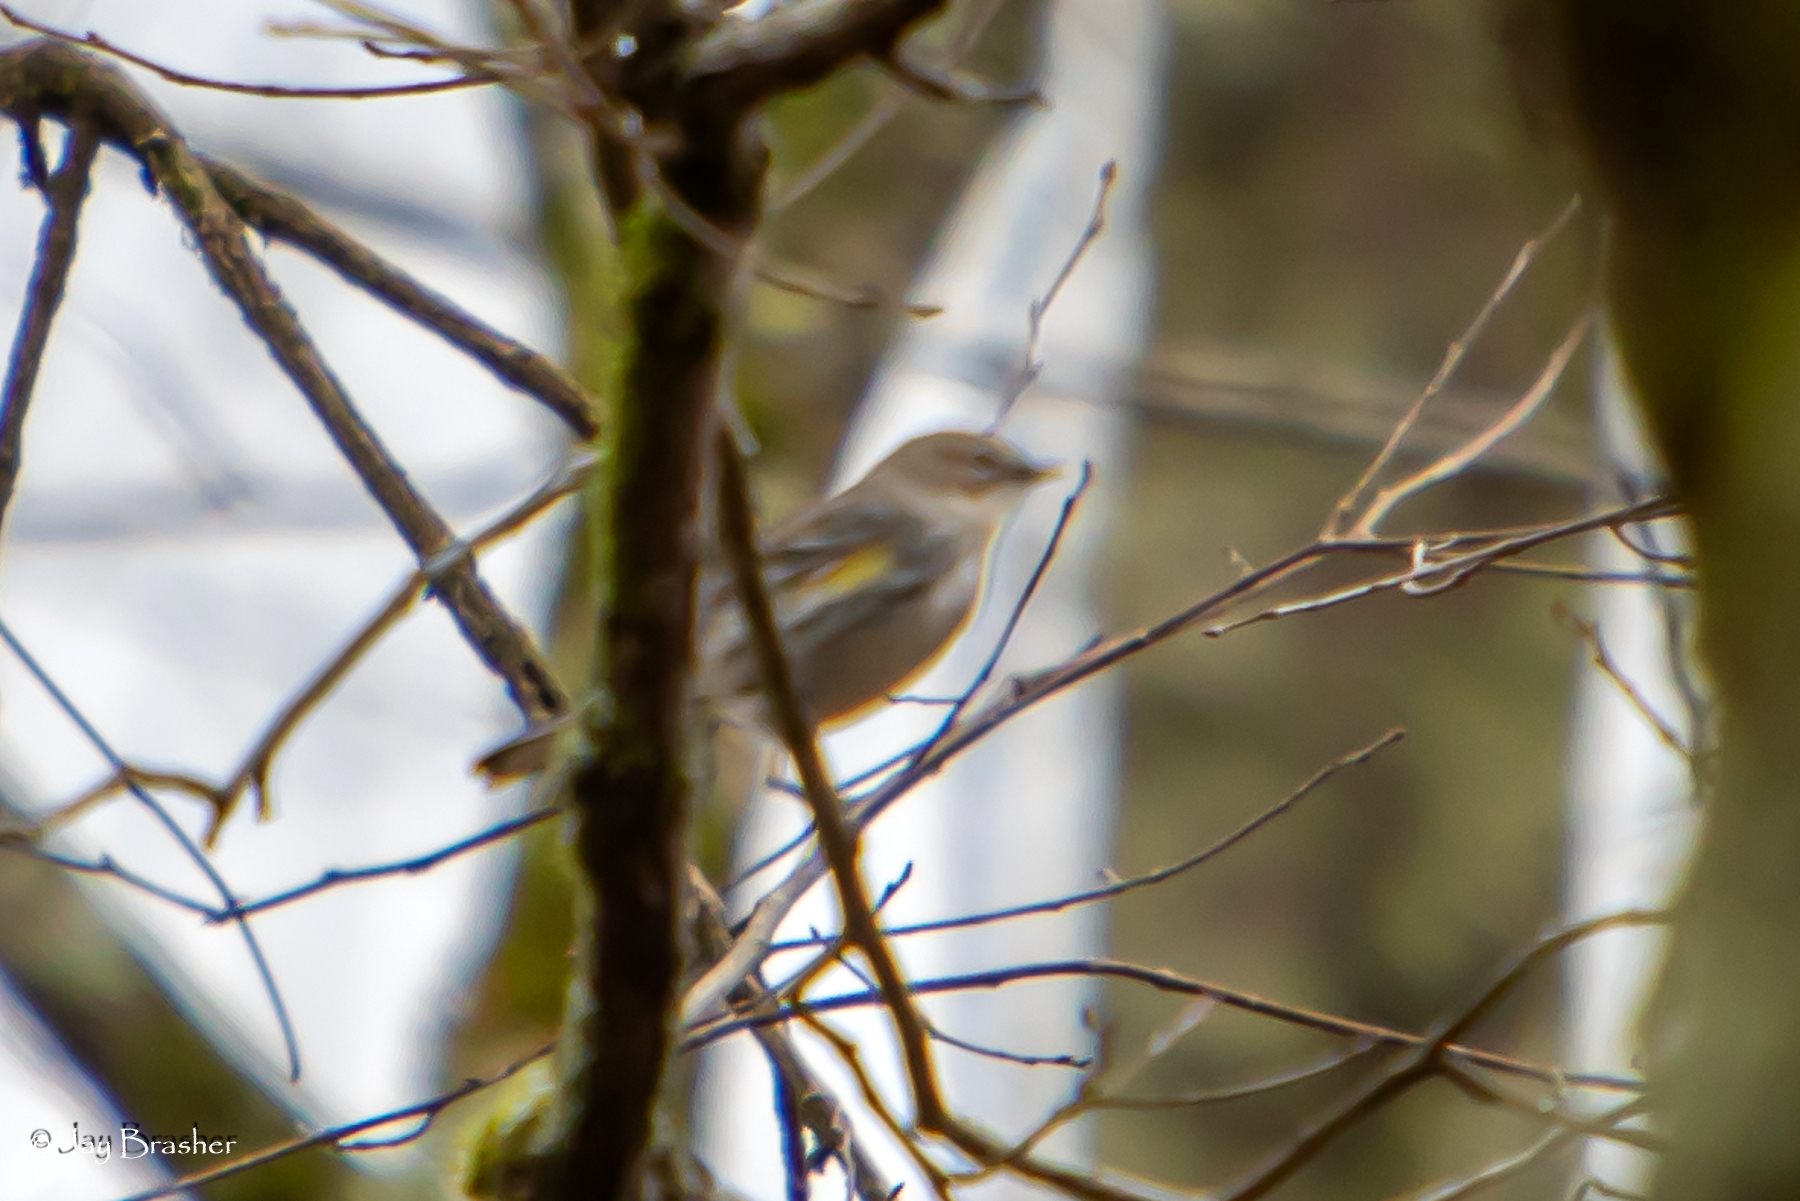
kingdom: Animalia
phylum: Chordata
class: Aves
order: Passeriformes
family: Parulidae
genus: Setophaga
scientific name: Setophaga coronata
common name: Myrtle warbler
